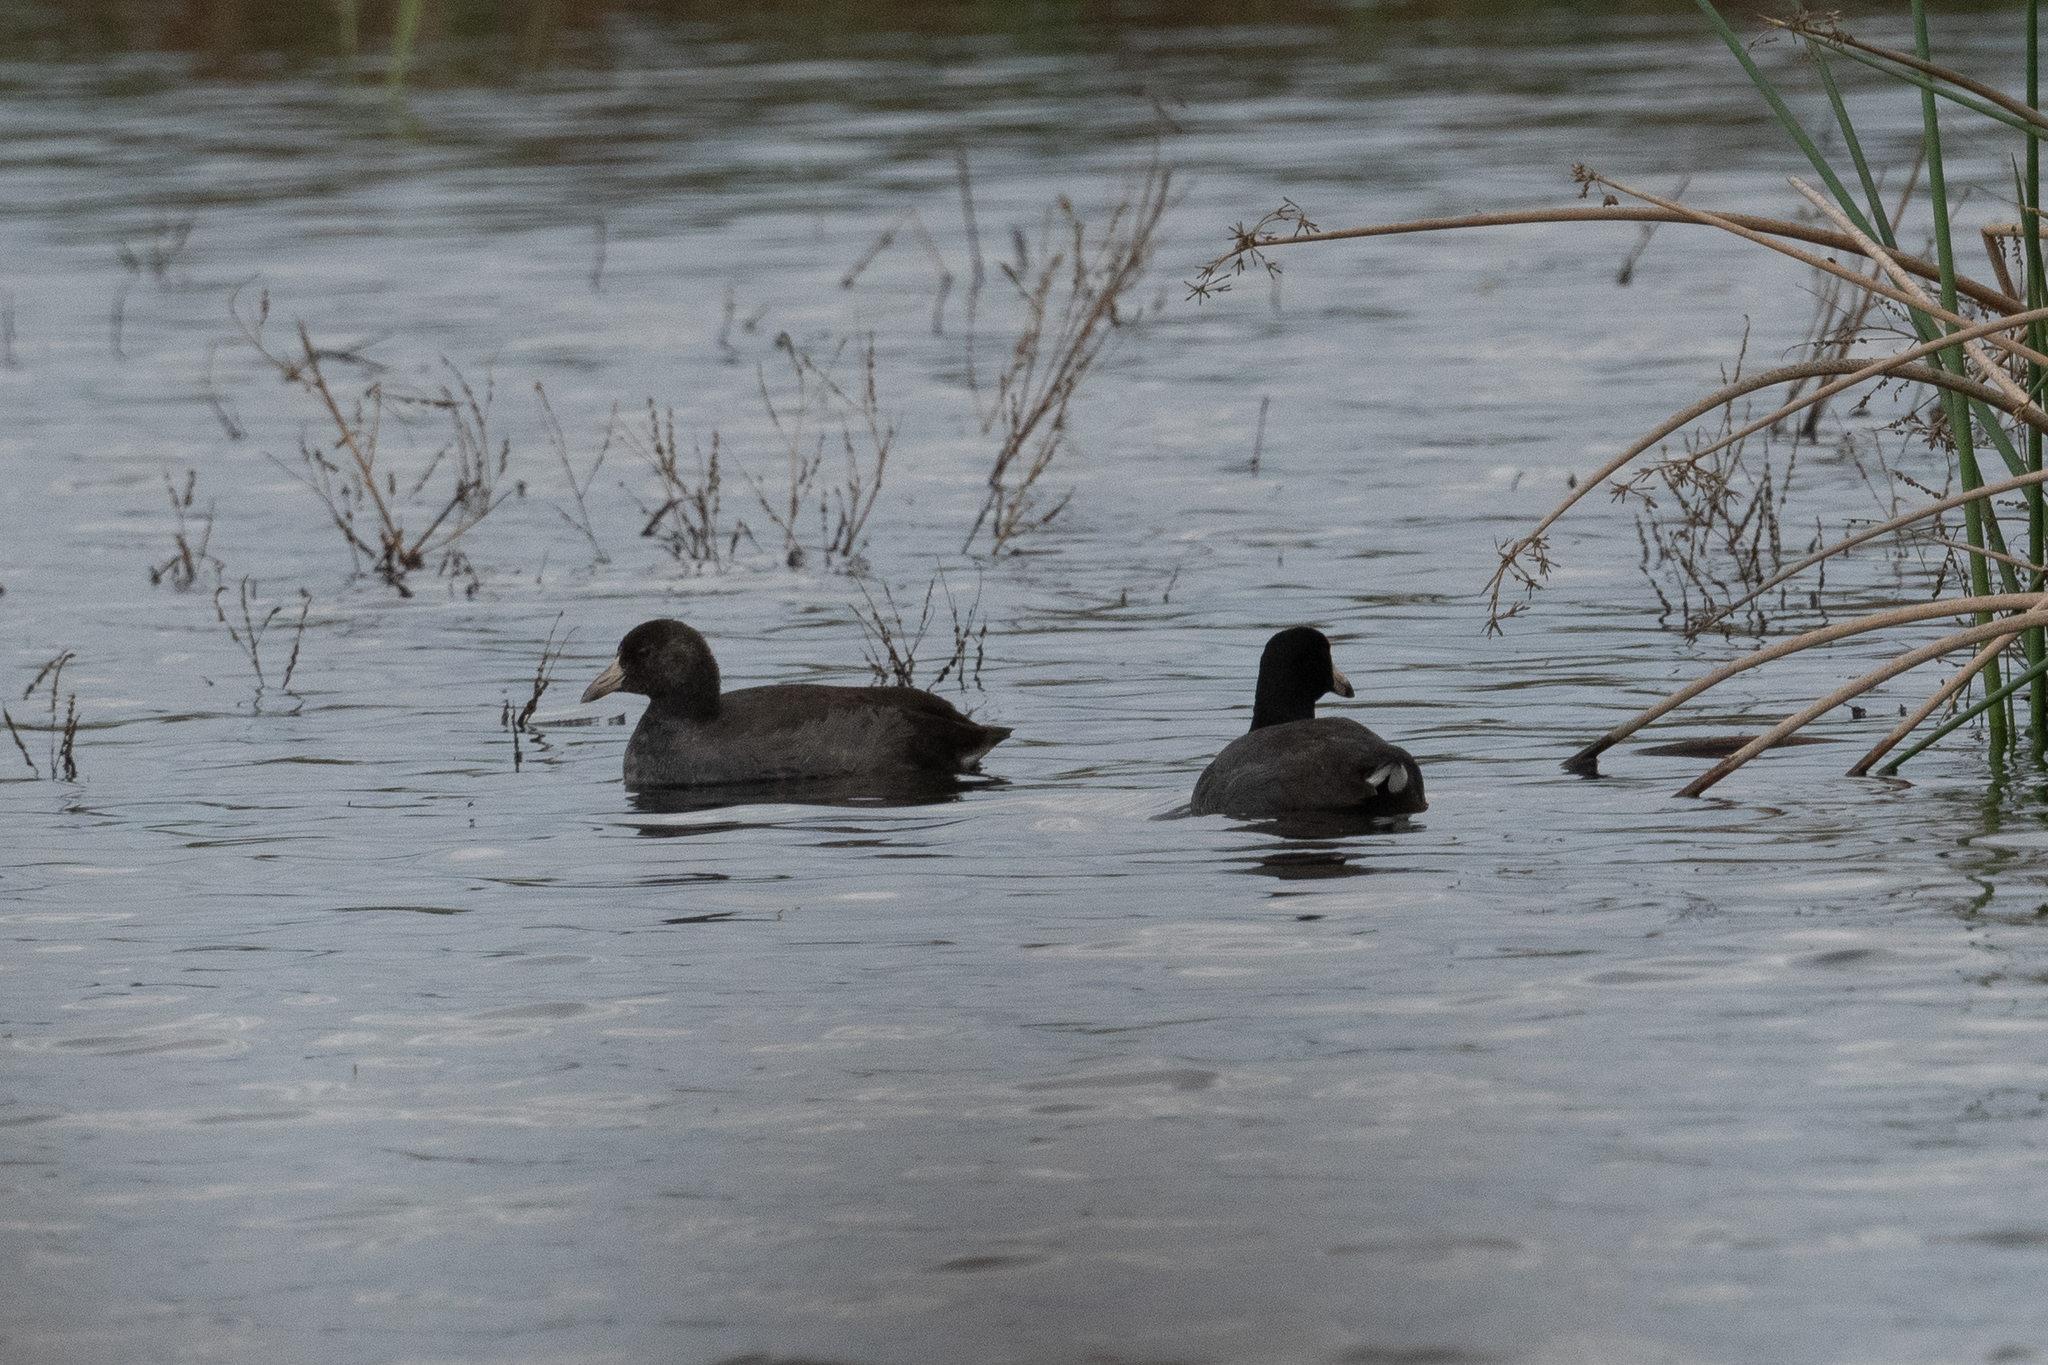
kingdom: Animalia
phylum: Chordata
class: Aves
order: Gruiformes
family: Rallidae
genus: Fulica
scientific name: Fulica americana
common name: American coot
